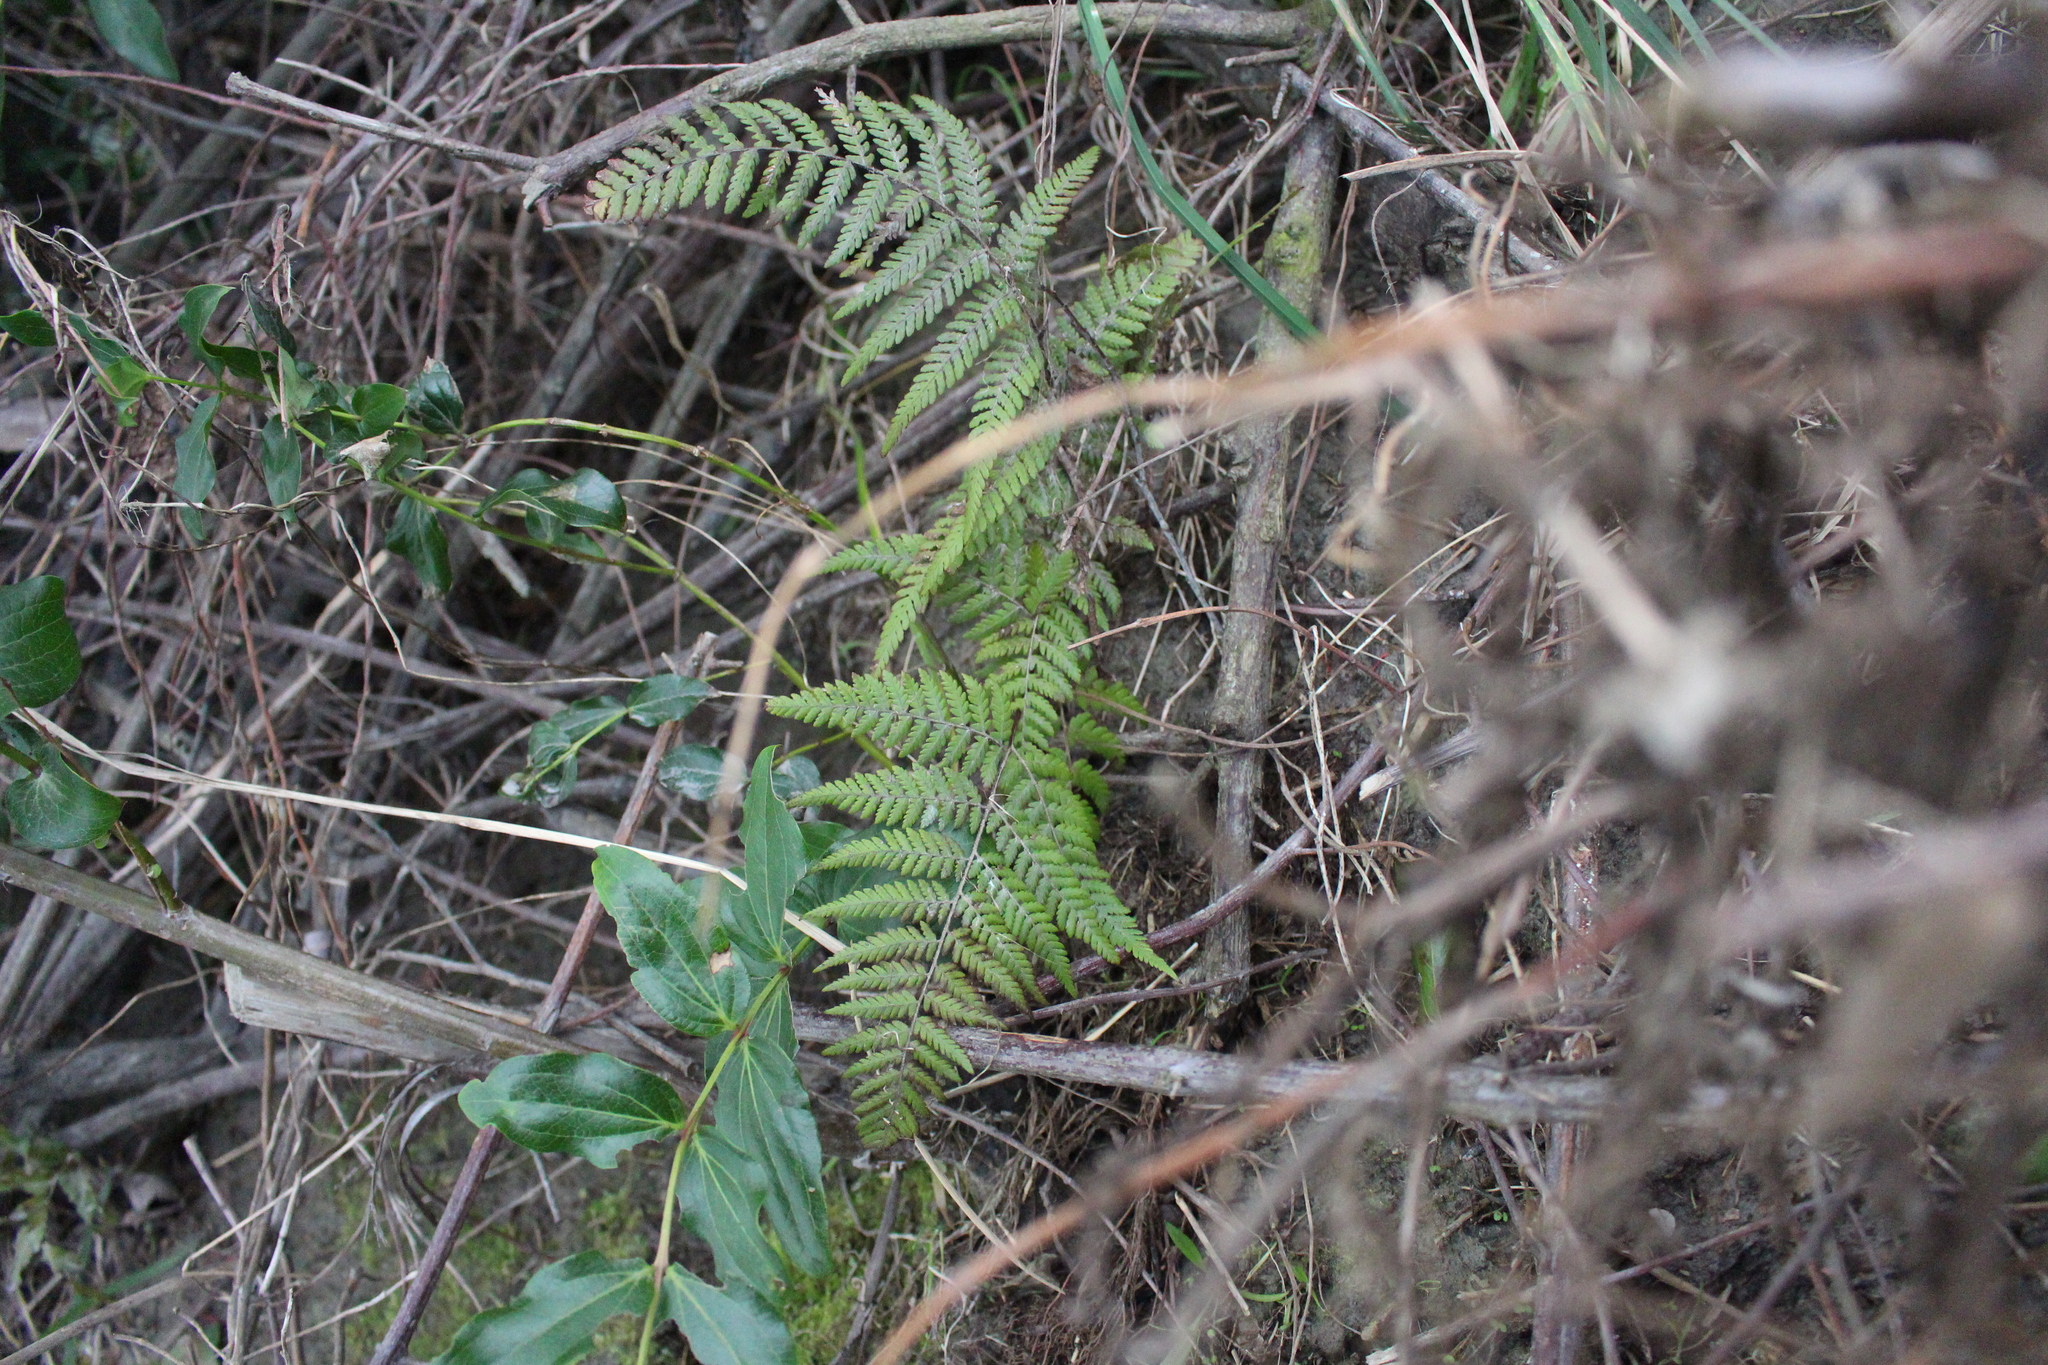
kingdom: Plantae
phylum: Tracheophyta
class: Polypodiopsida
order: Polypodiales
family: Dennstaedtiaceae
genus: Hypolepis
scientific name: Hypolepis ambigua
